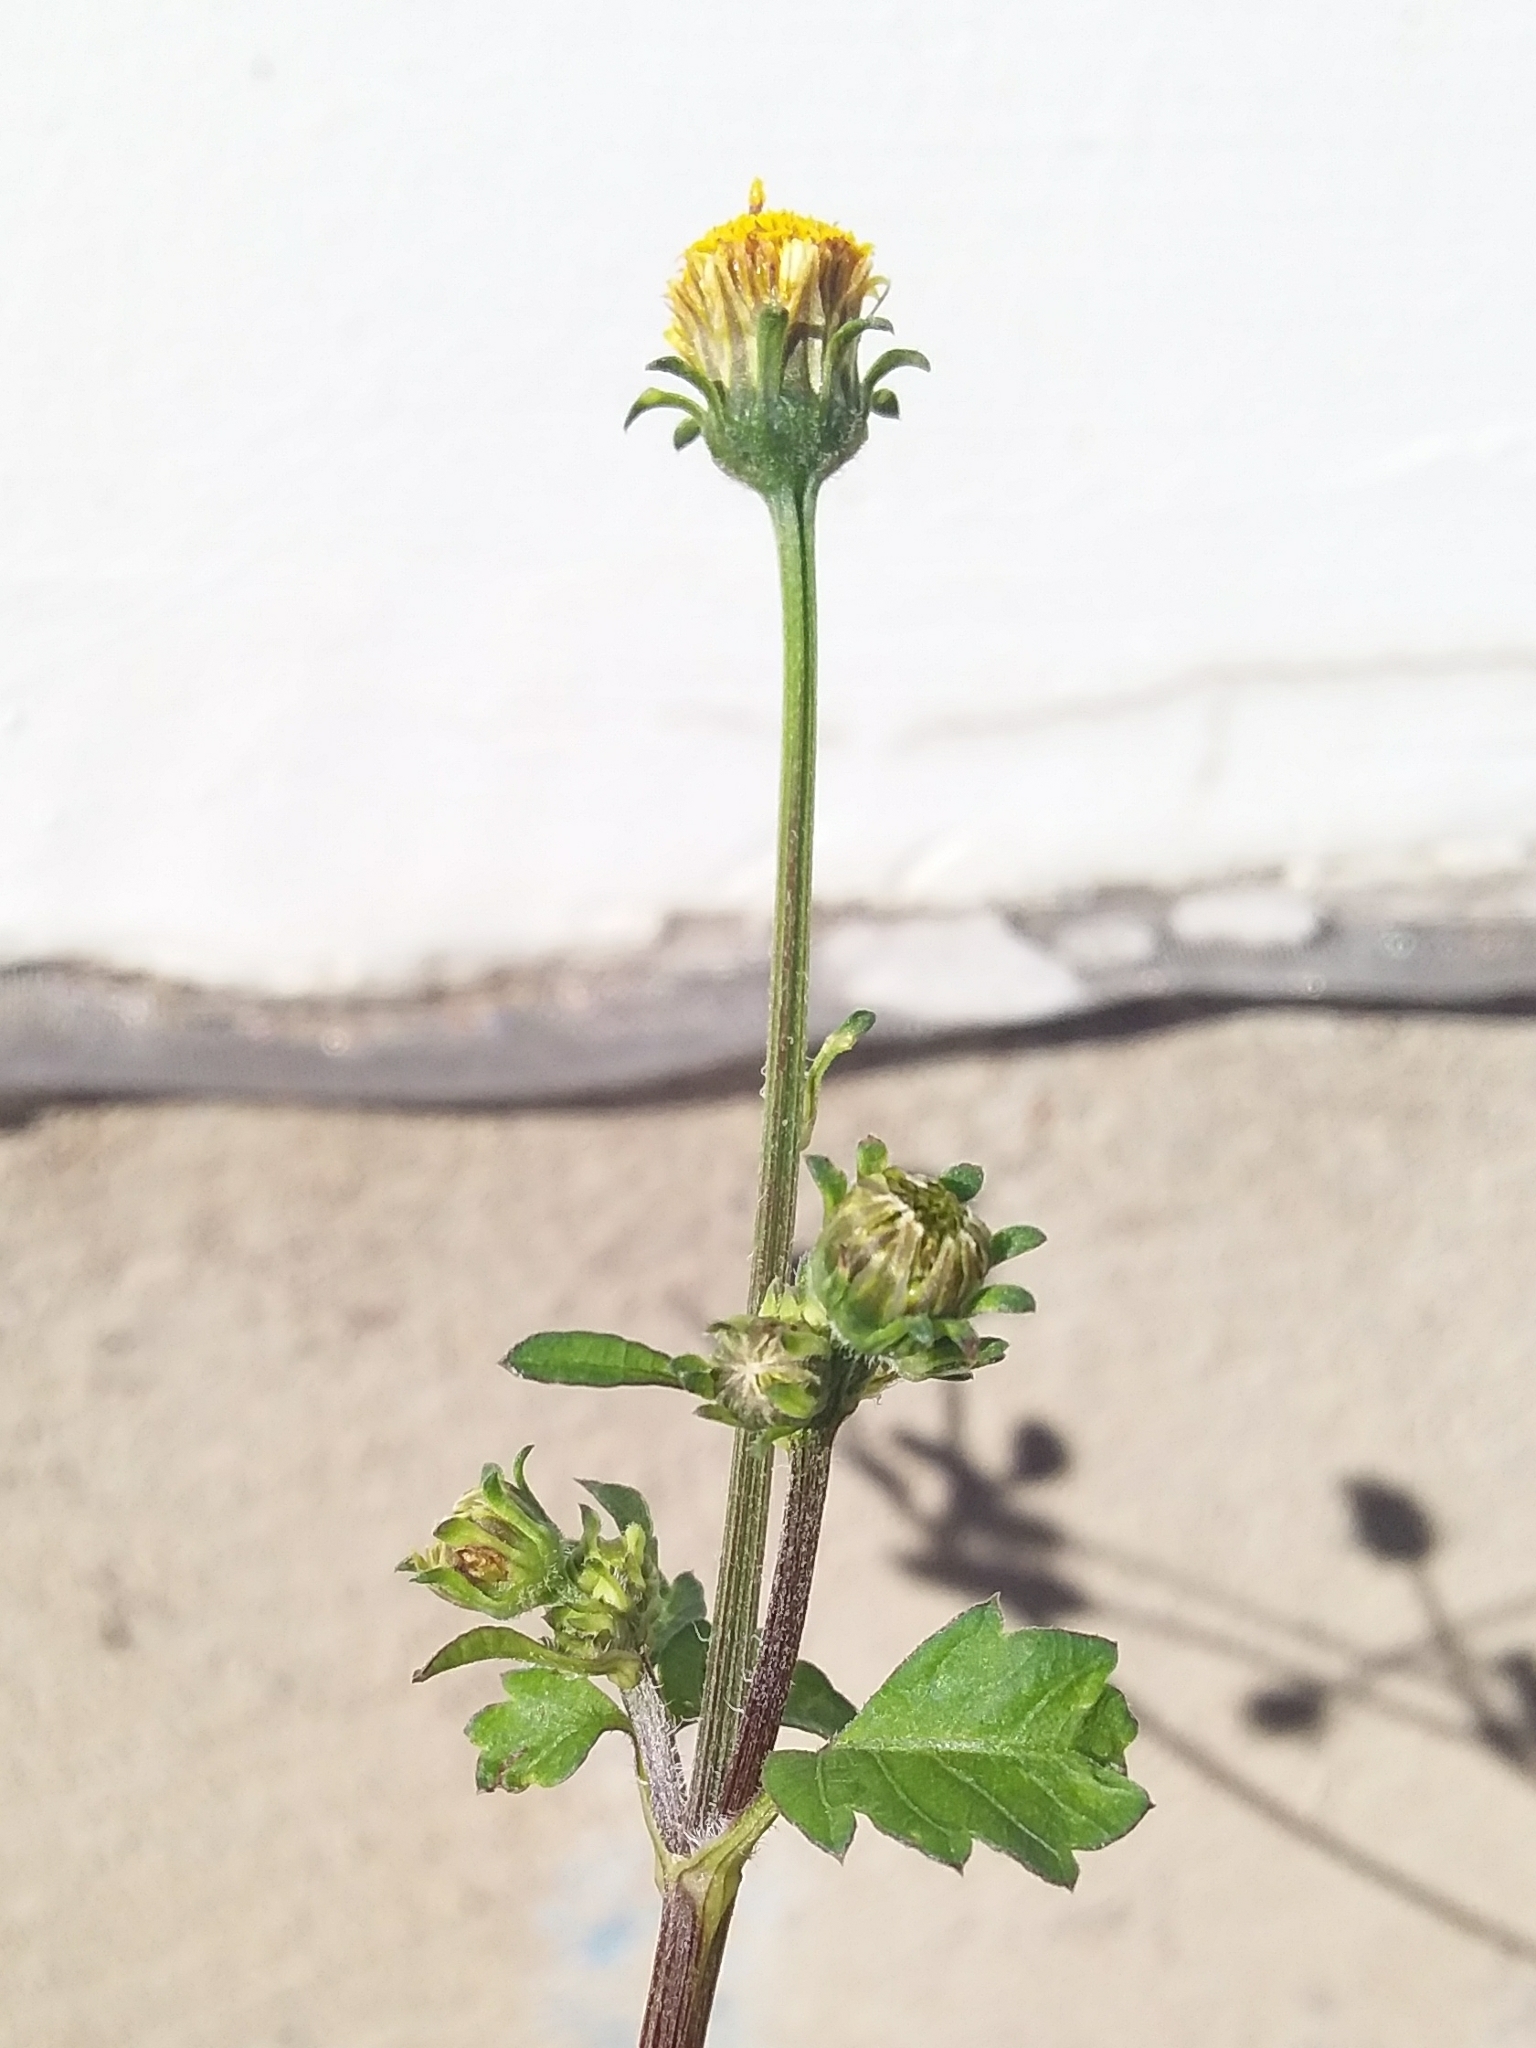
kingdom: Plantae
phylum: Tracheophyta
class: Magnoliopsida
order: Asterales
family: Asteraceae
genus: Bidens
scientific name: Bidens pilosa
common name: Black-jack
